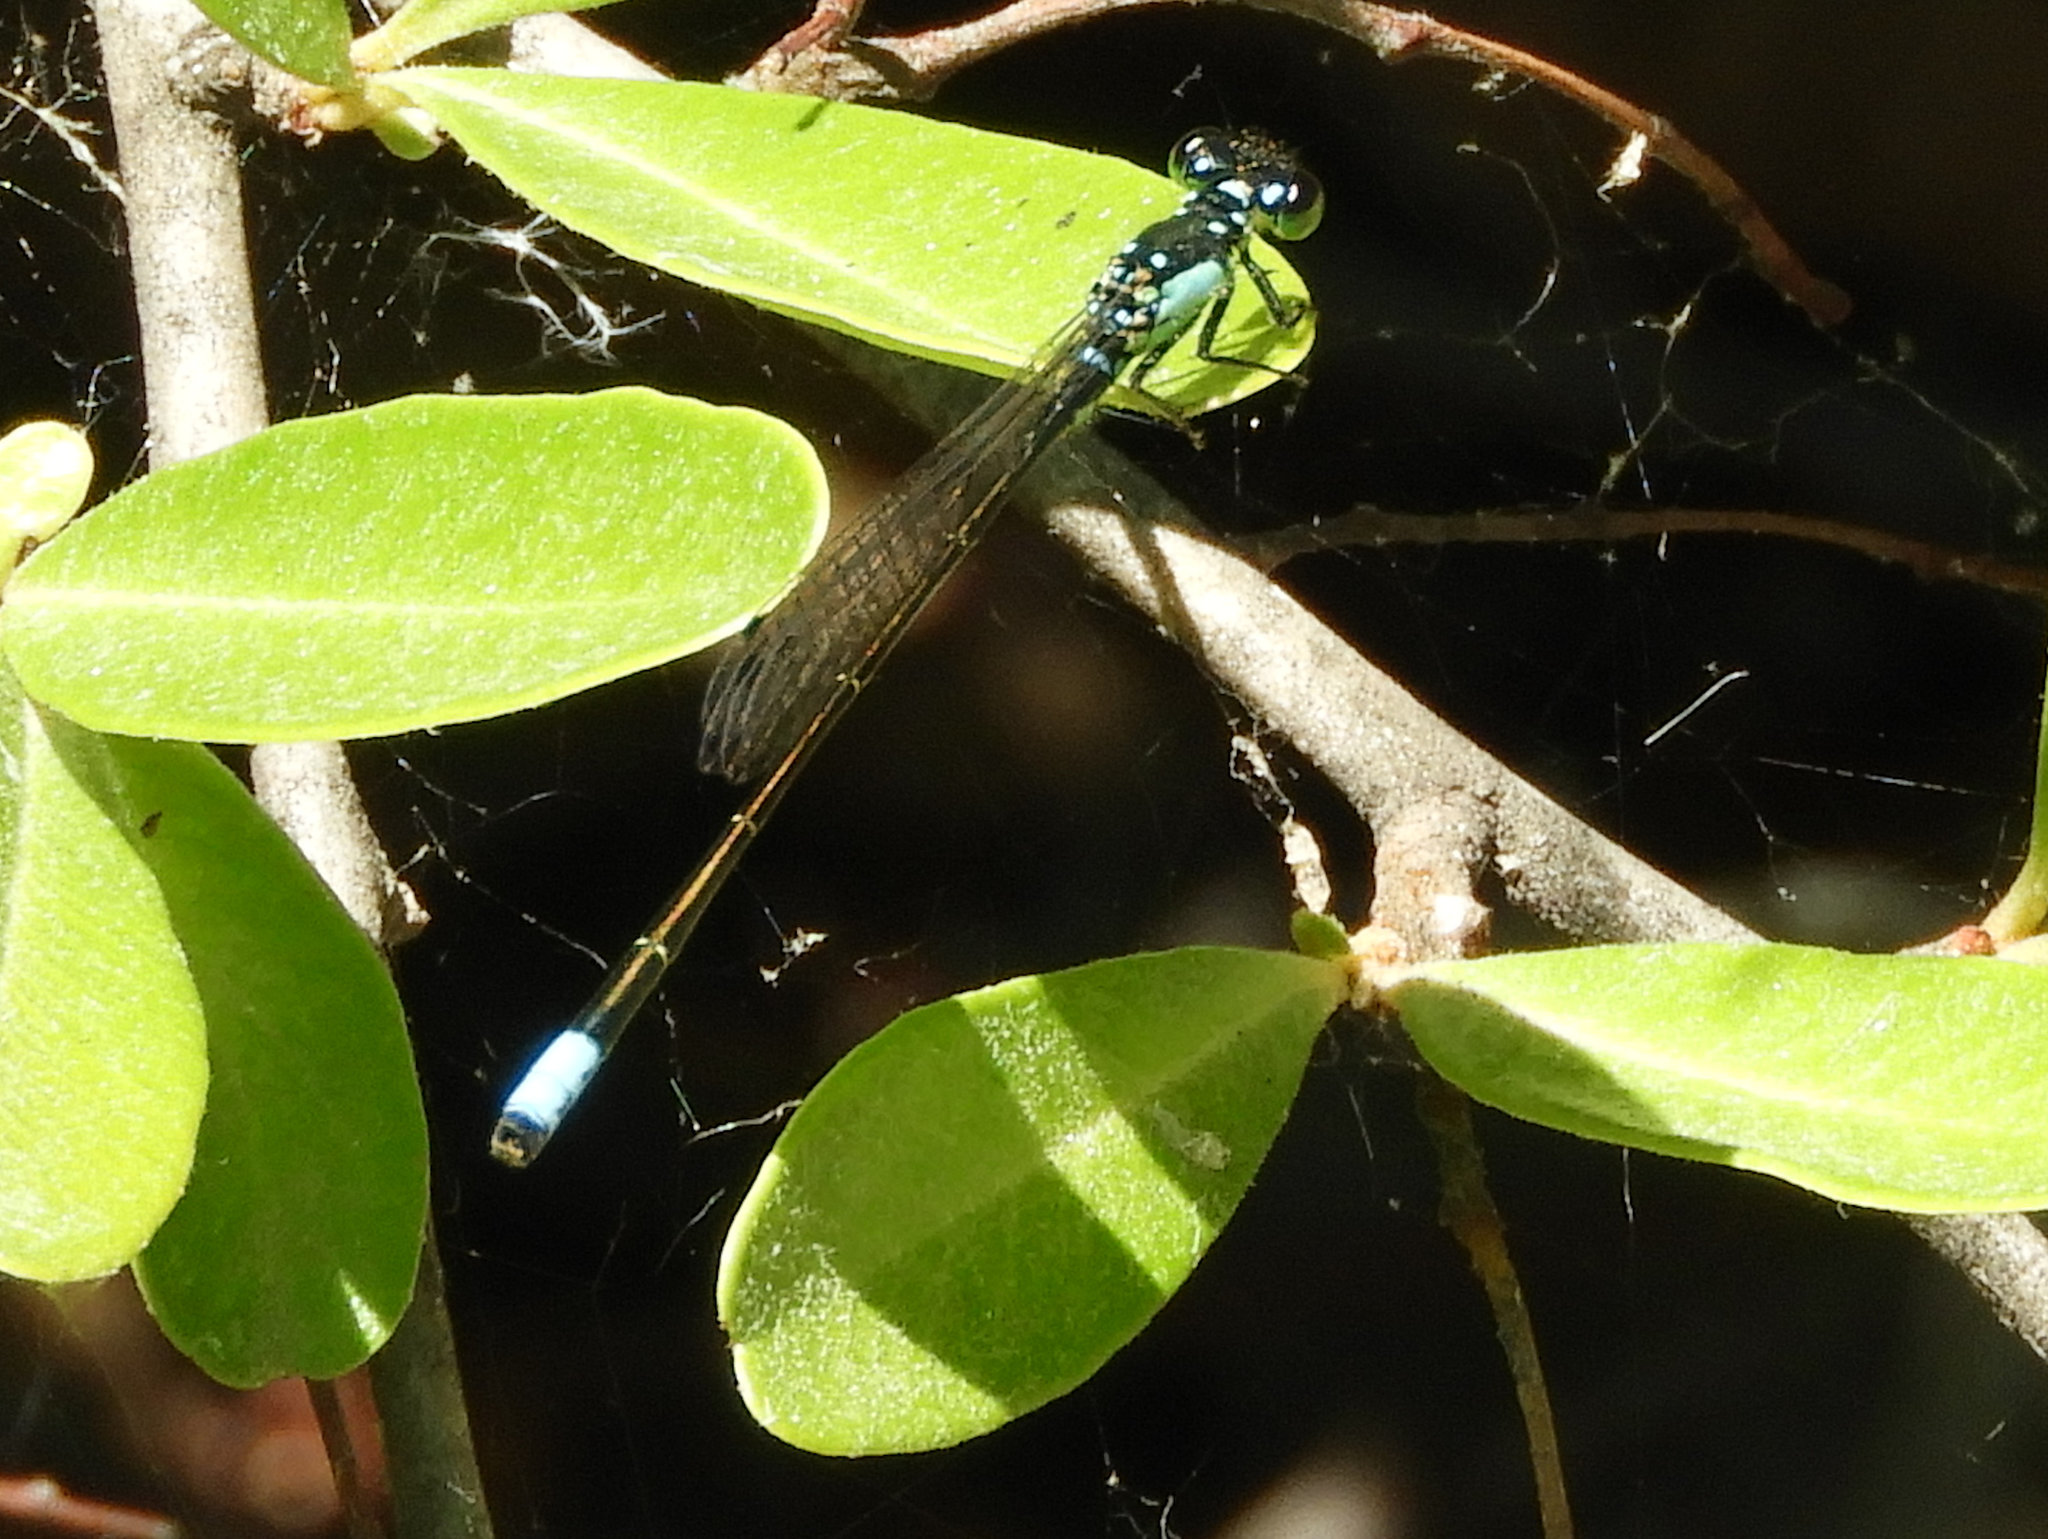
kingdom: Animalia
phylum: Arthropoda
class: Insecta
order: Odonata
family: Coenagrionidae
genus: Ischnura
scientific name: Ischnura cervula
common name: Pacific forktail
